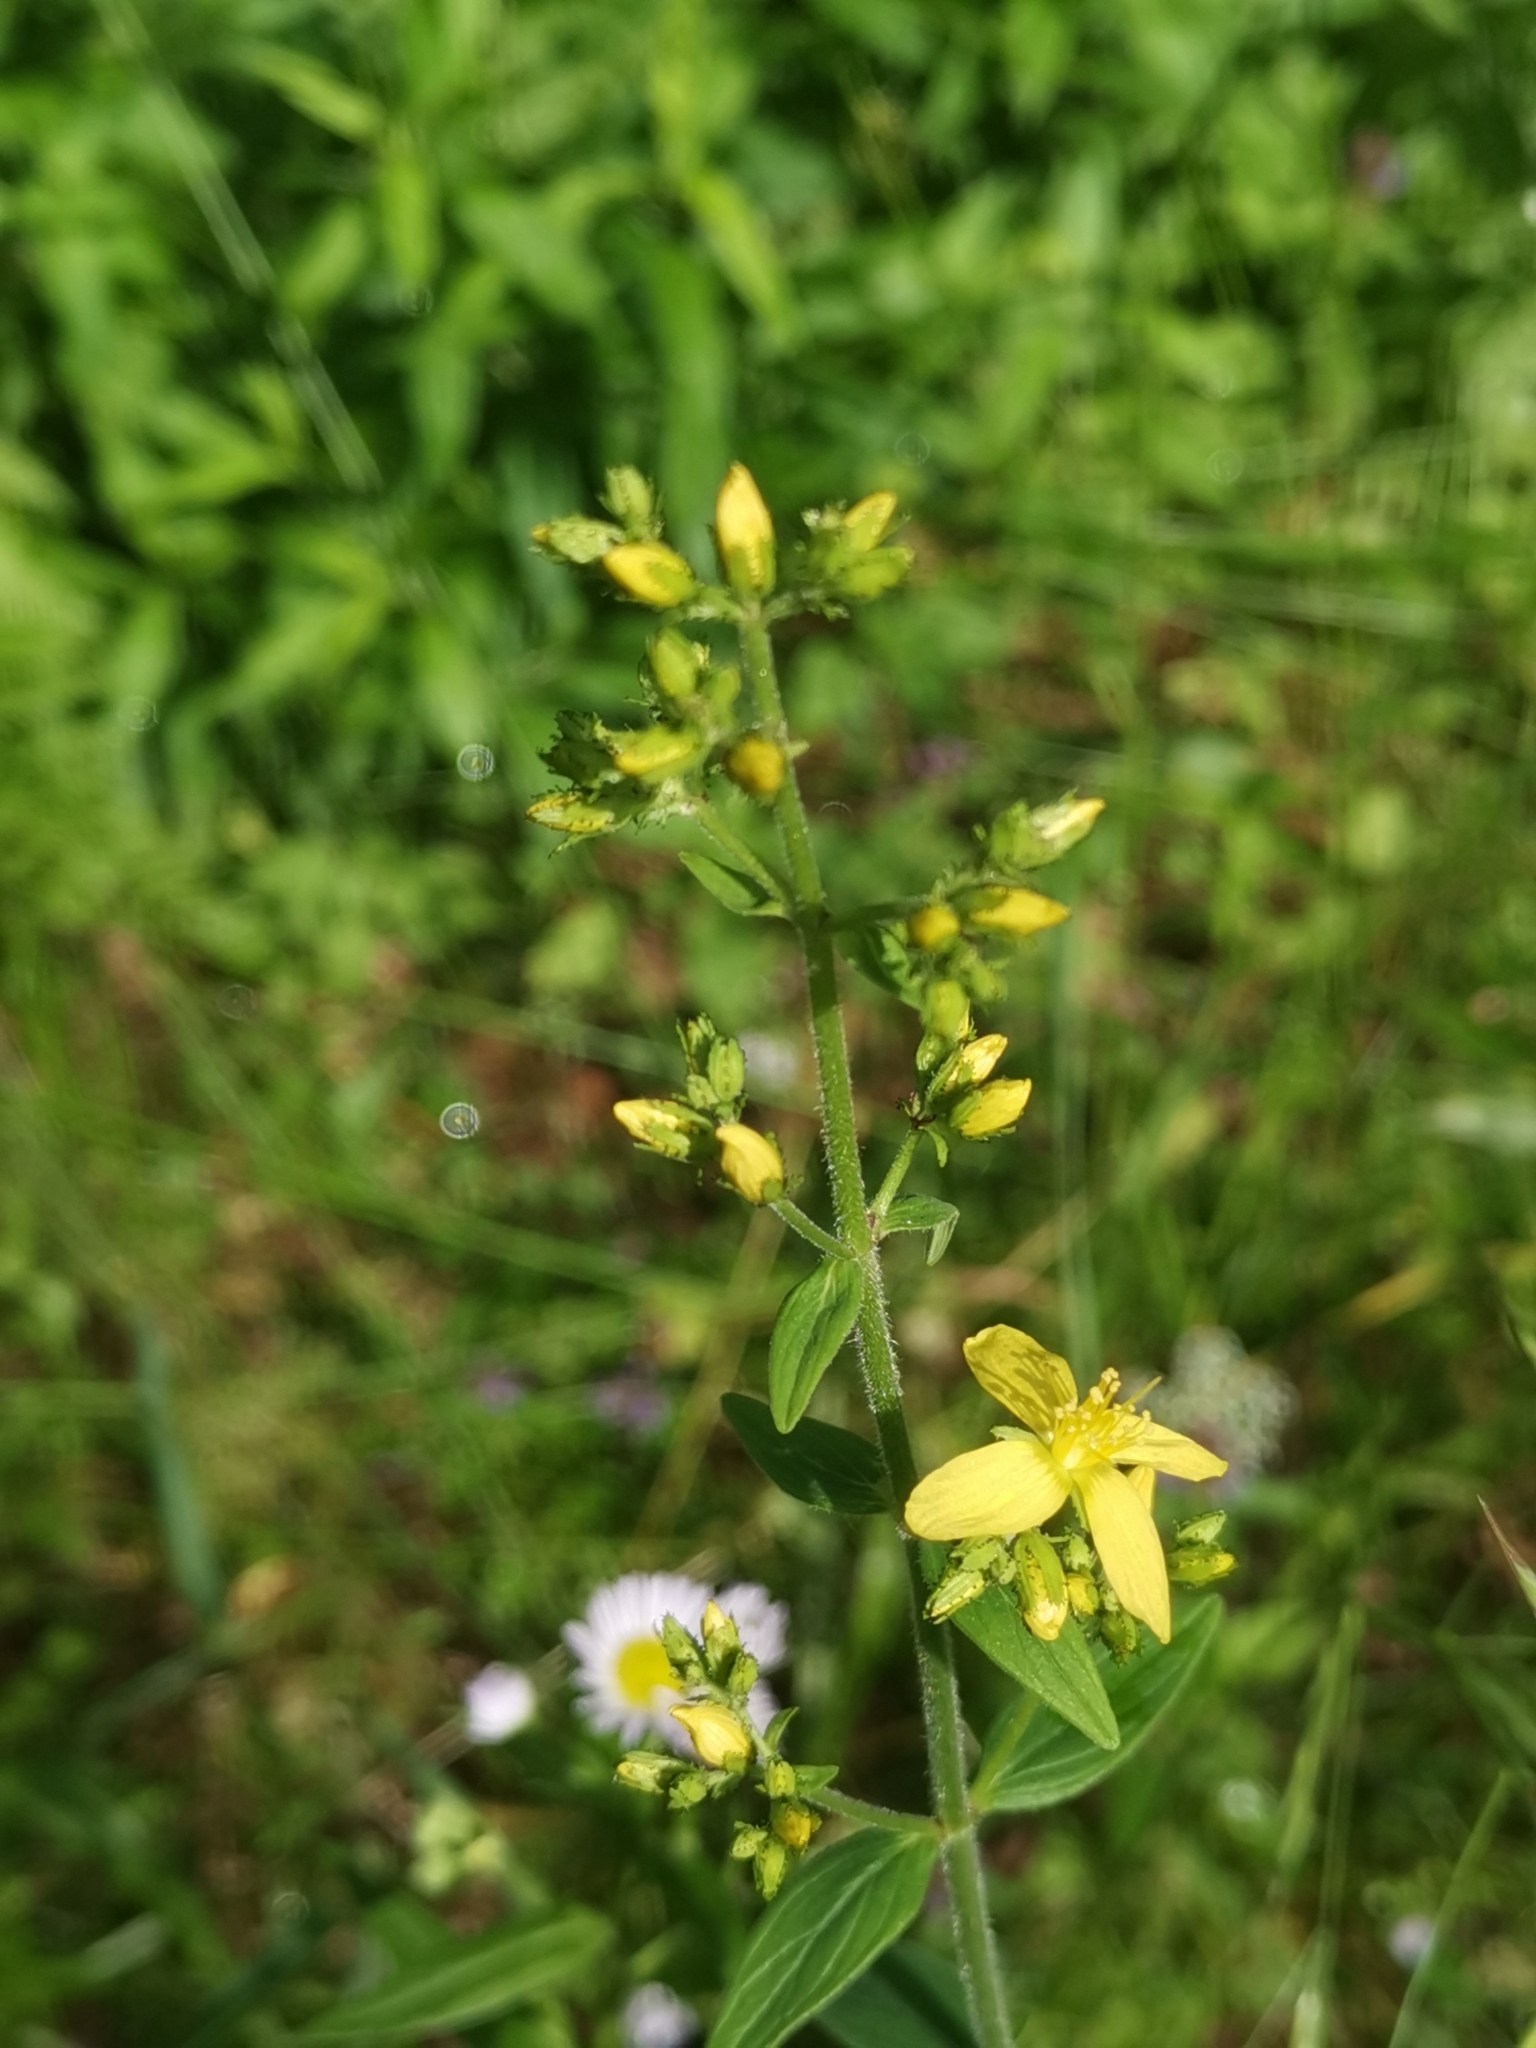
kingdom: Plantae
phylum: Tracheophyta
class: Magnoliopsida
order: Malpighiales
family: Hypericaceae
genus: Hypericum
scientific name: Hypericum hirsutum
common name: Hairy st. john's-wort
